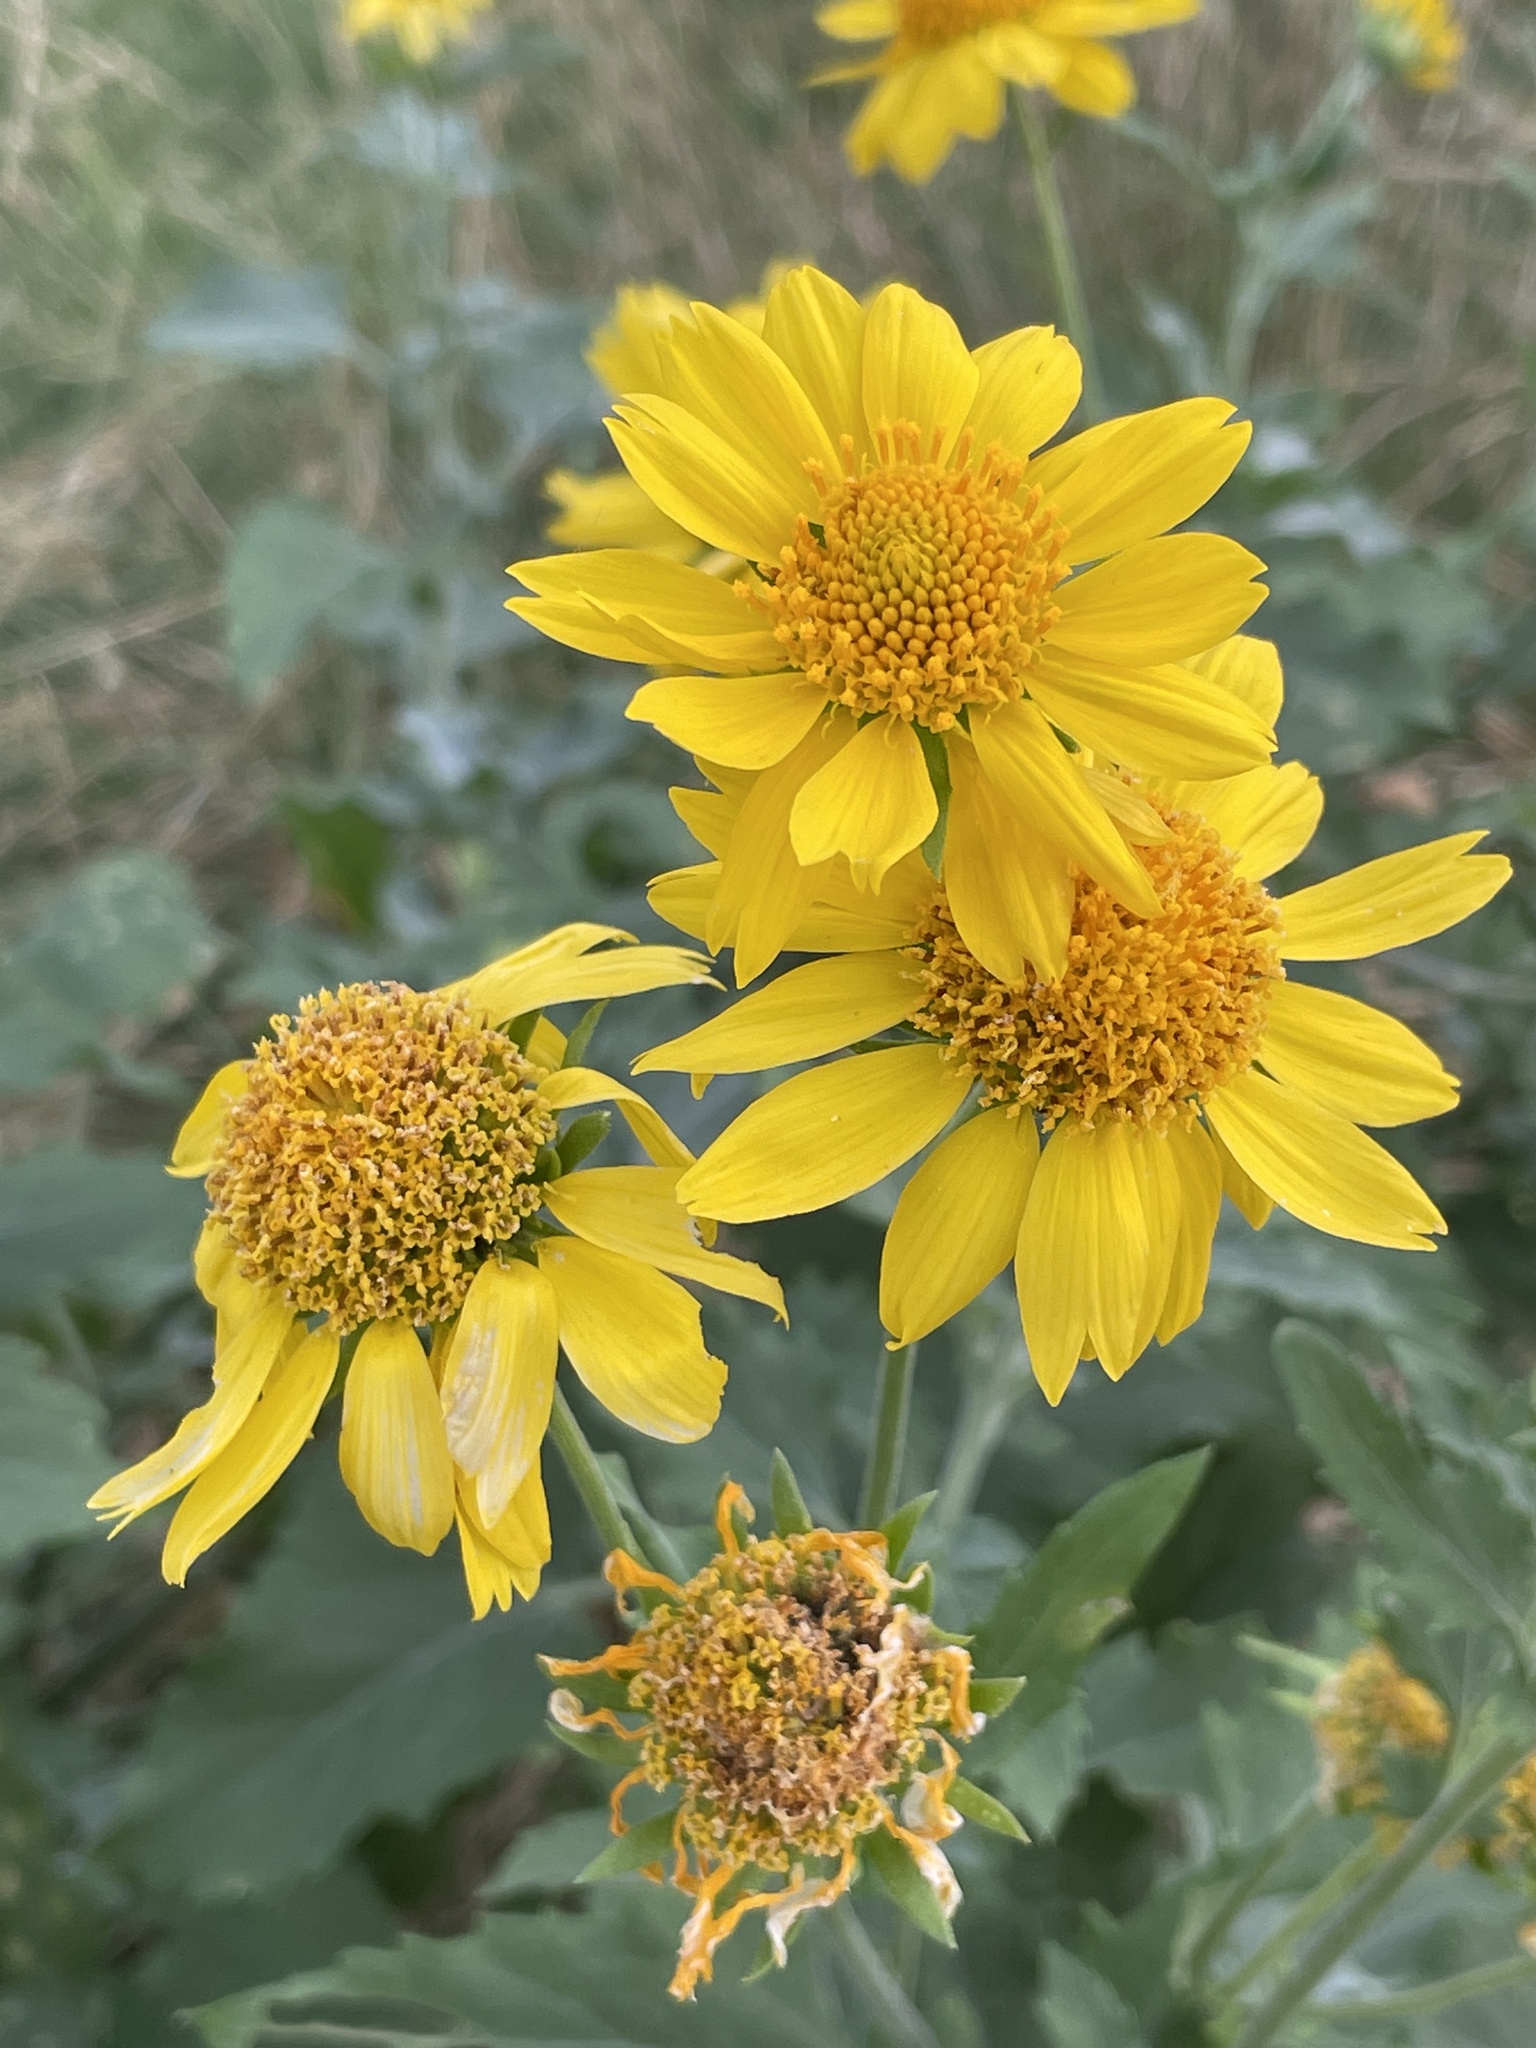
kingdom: Plantae
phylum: Tracheophyta
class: Magnoliopsida
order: Asterales
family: Asteraceae
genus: Verbesina
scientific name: Verbesina encelioides
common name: Golden crownbeard
